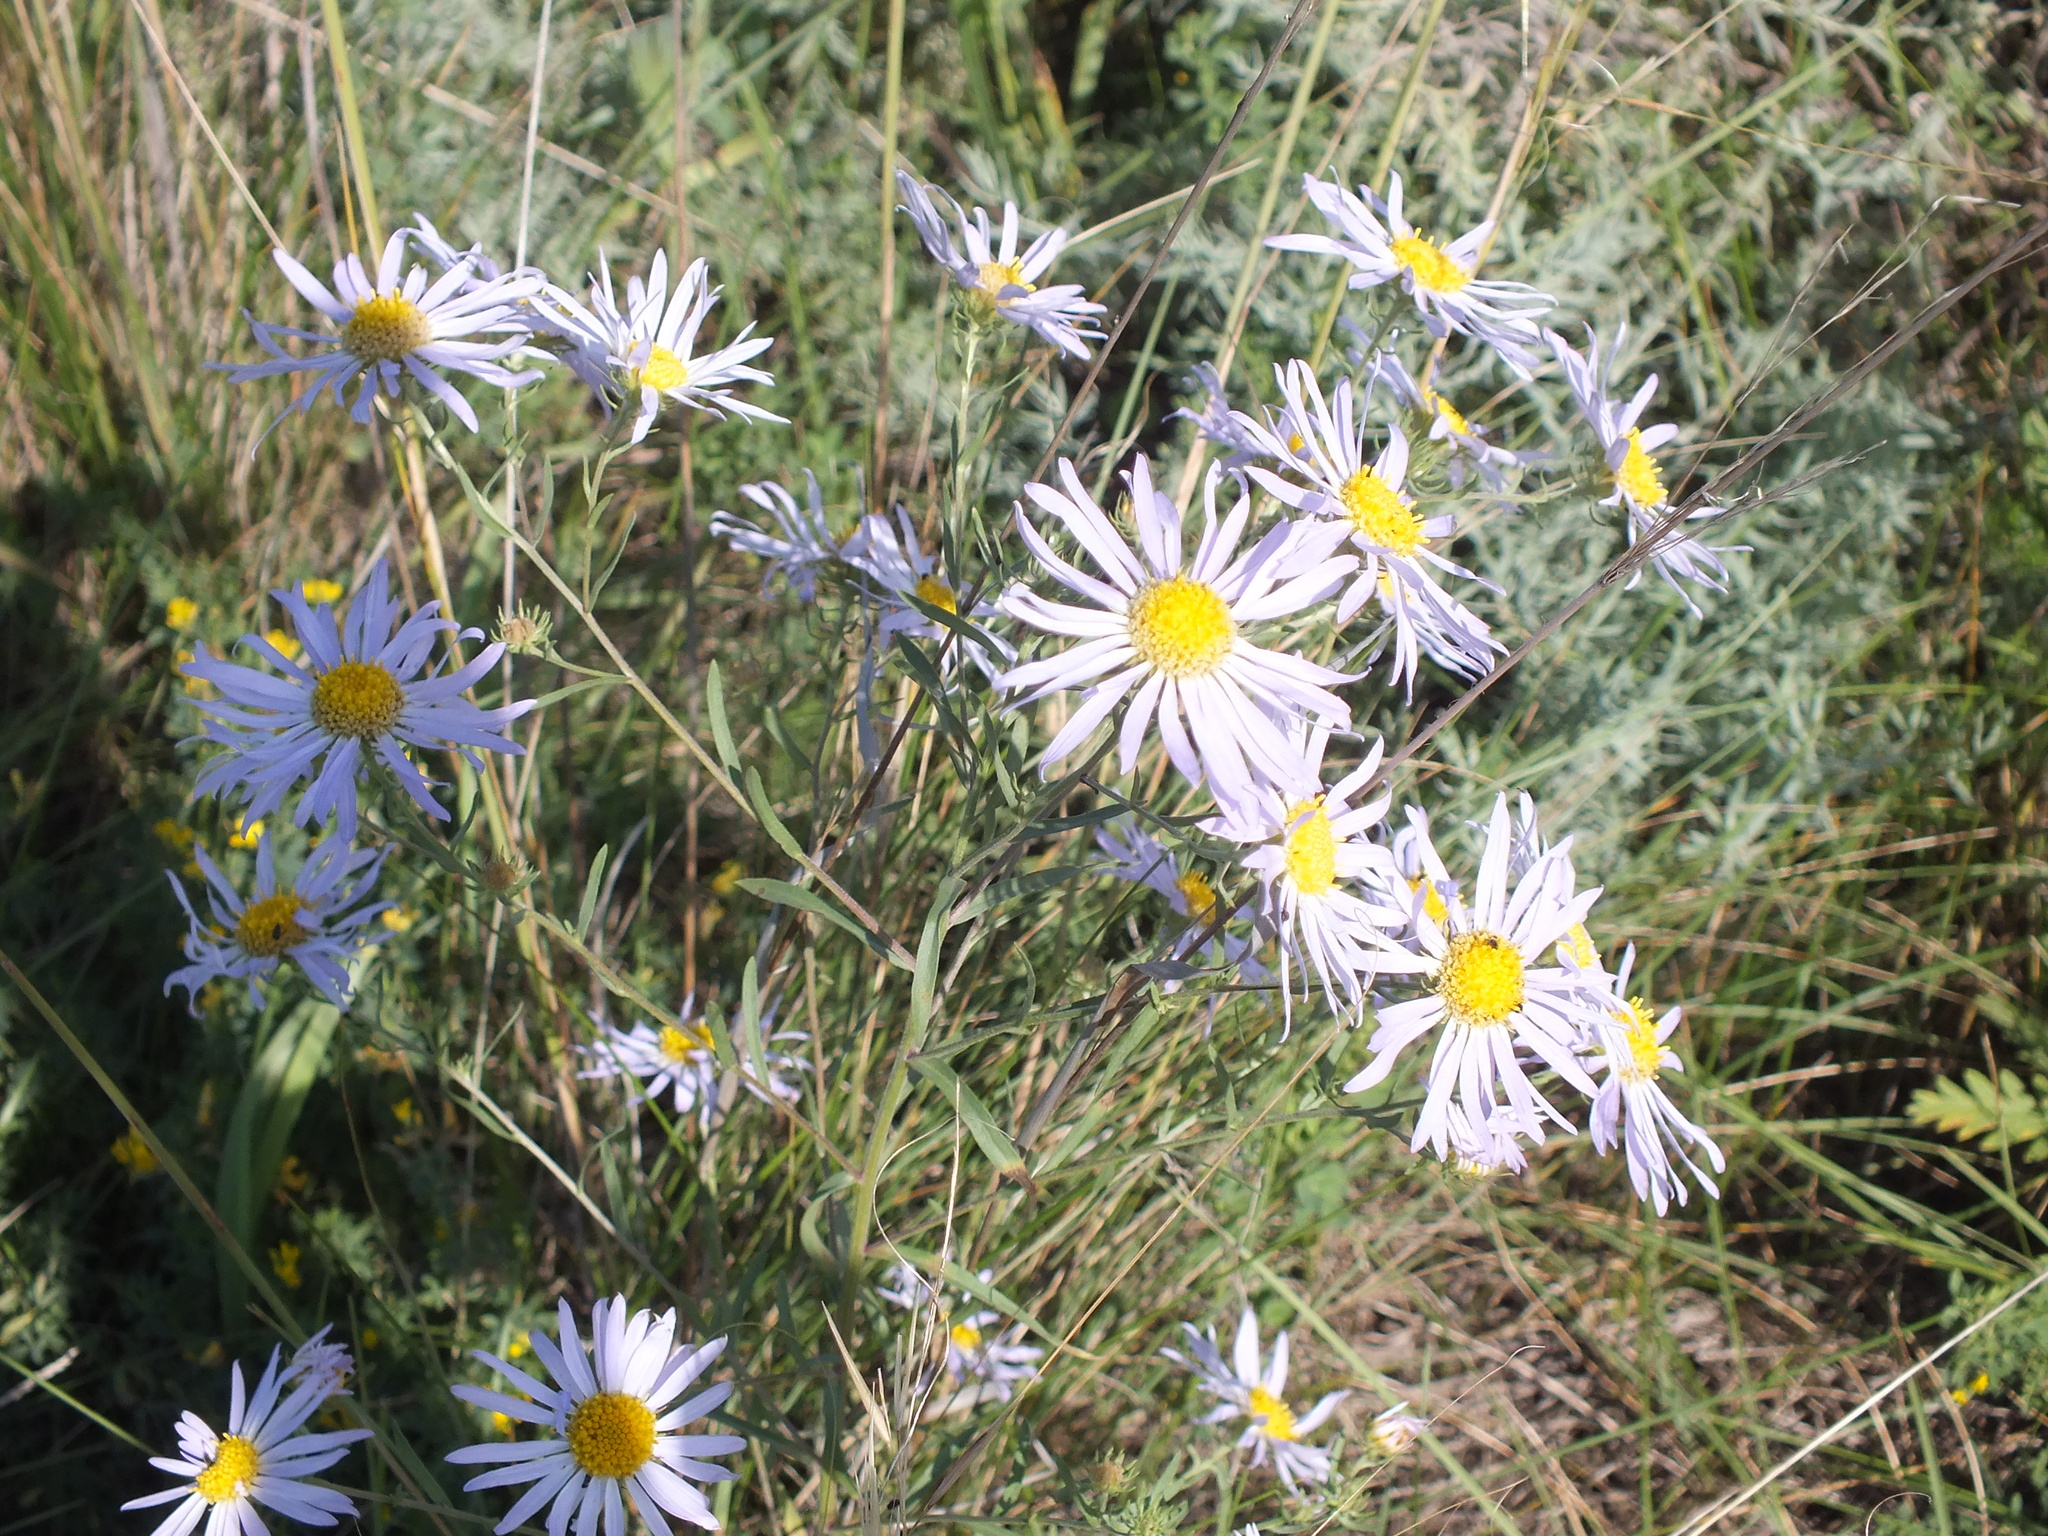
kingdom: Plantae
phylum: Tracheophyta
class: Magnoliopsida
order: Asterales
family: Asteraceae
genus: Aster
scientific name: Aster biennis
